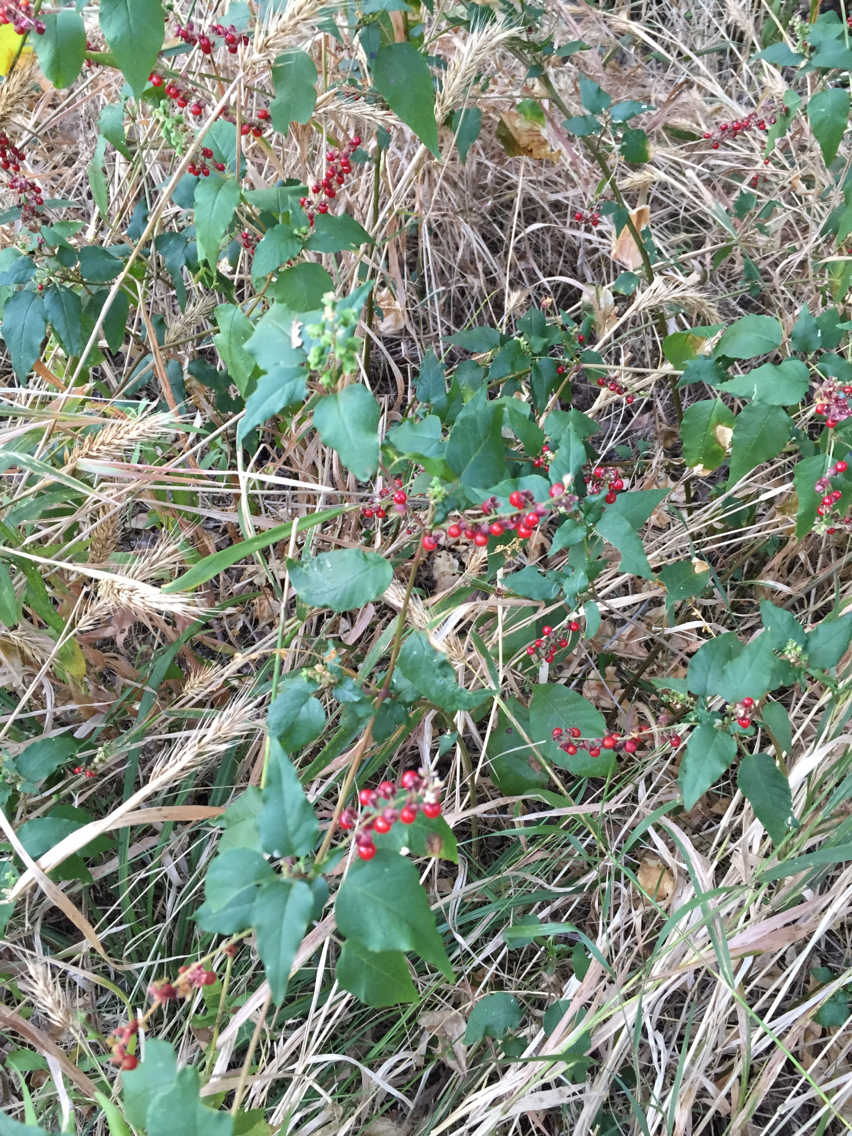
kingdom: Plantae
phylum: Tracheophyta
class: Magnoliopsida
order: Caryophyllales
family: Phytolaccaceae
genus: Rivina
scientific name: Rivina humilis
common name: Rougeplant
